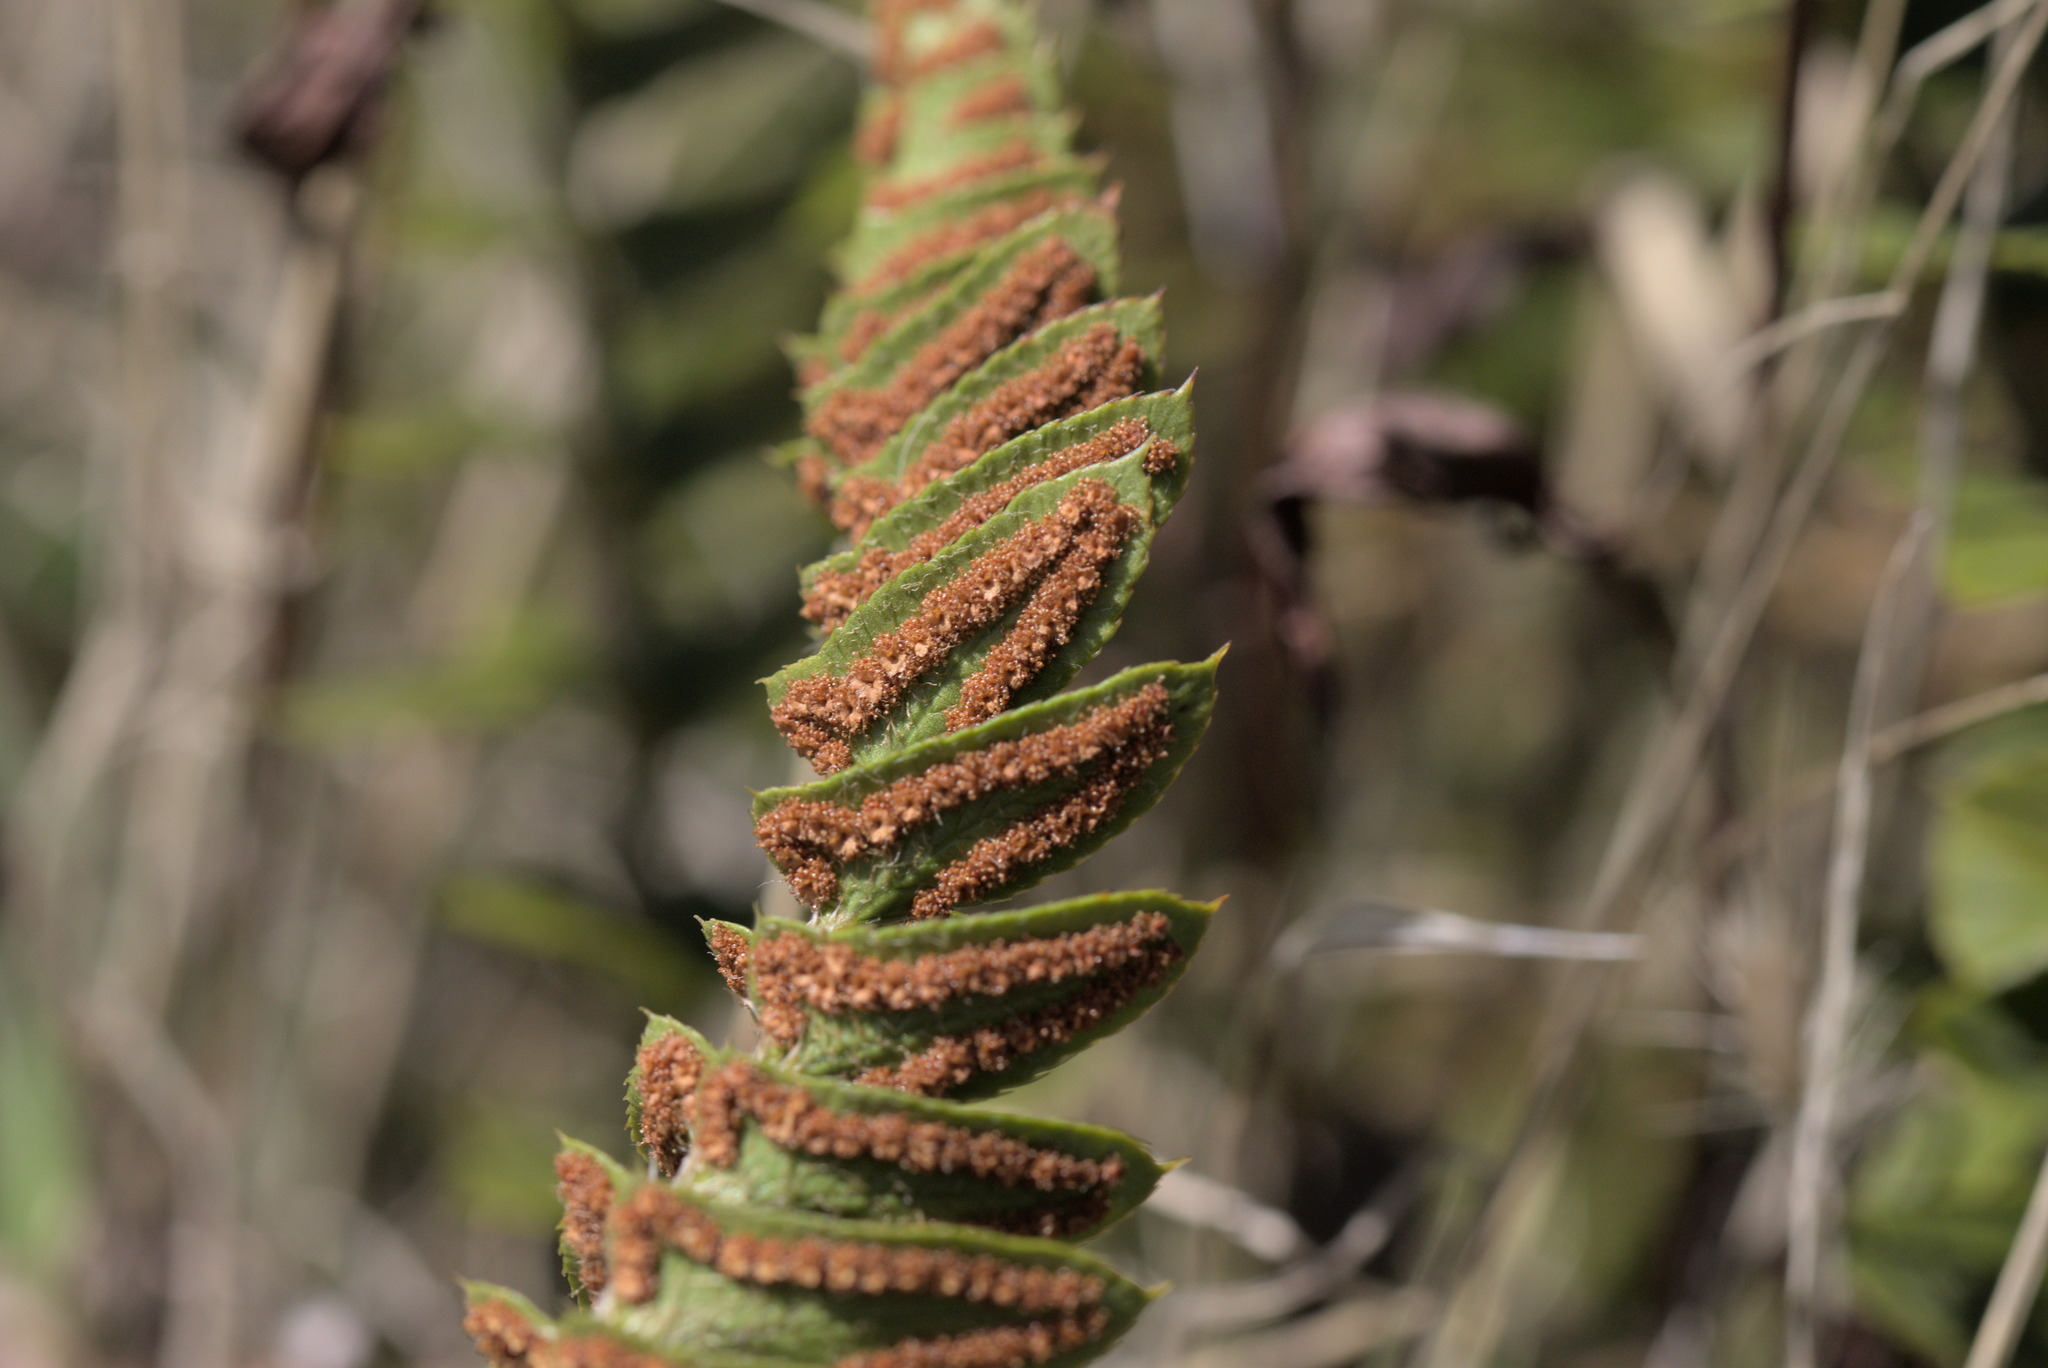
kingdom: Plantae
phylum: Tracheophyta
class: Polypodiopsida
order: Polypodiales
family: Dryopteridaceae
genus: Polystichum
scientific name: Polystichum imbricans
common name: Dwarf western sword fern
